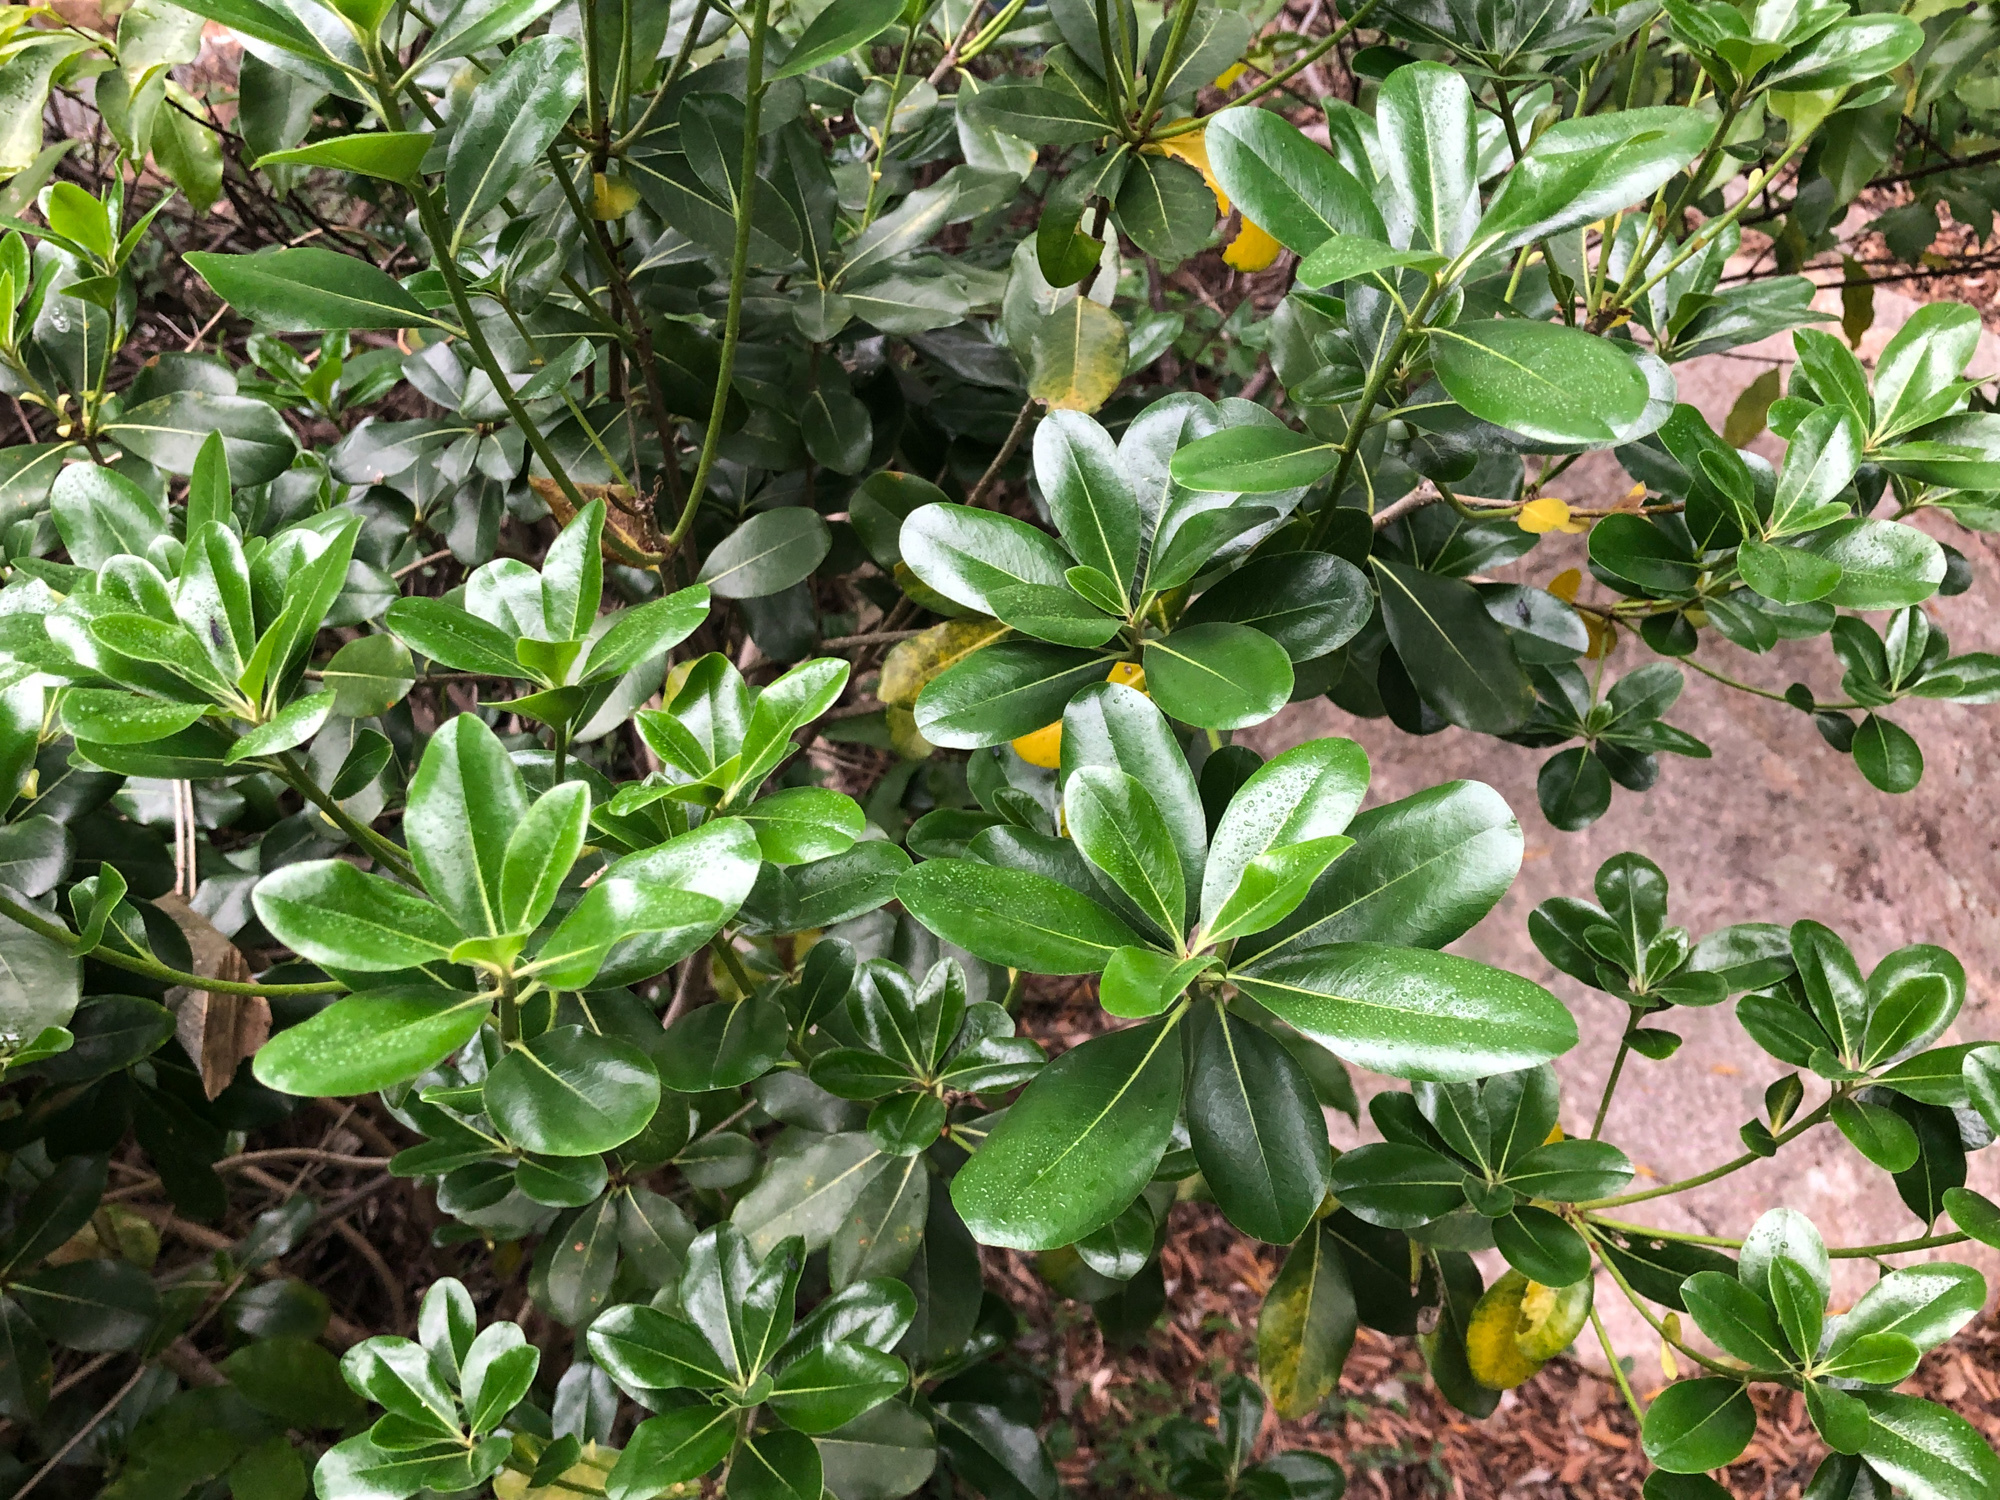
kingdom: Plantae
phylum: Tracheophyta
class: Magnoliopsida
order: Apiales
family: Pittosporaceae
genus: Pittosporum
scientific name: Pittosporum tobira
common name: Japanese cheesewood
